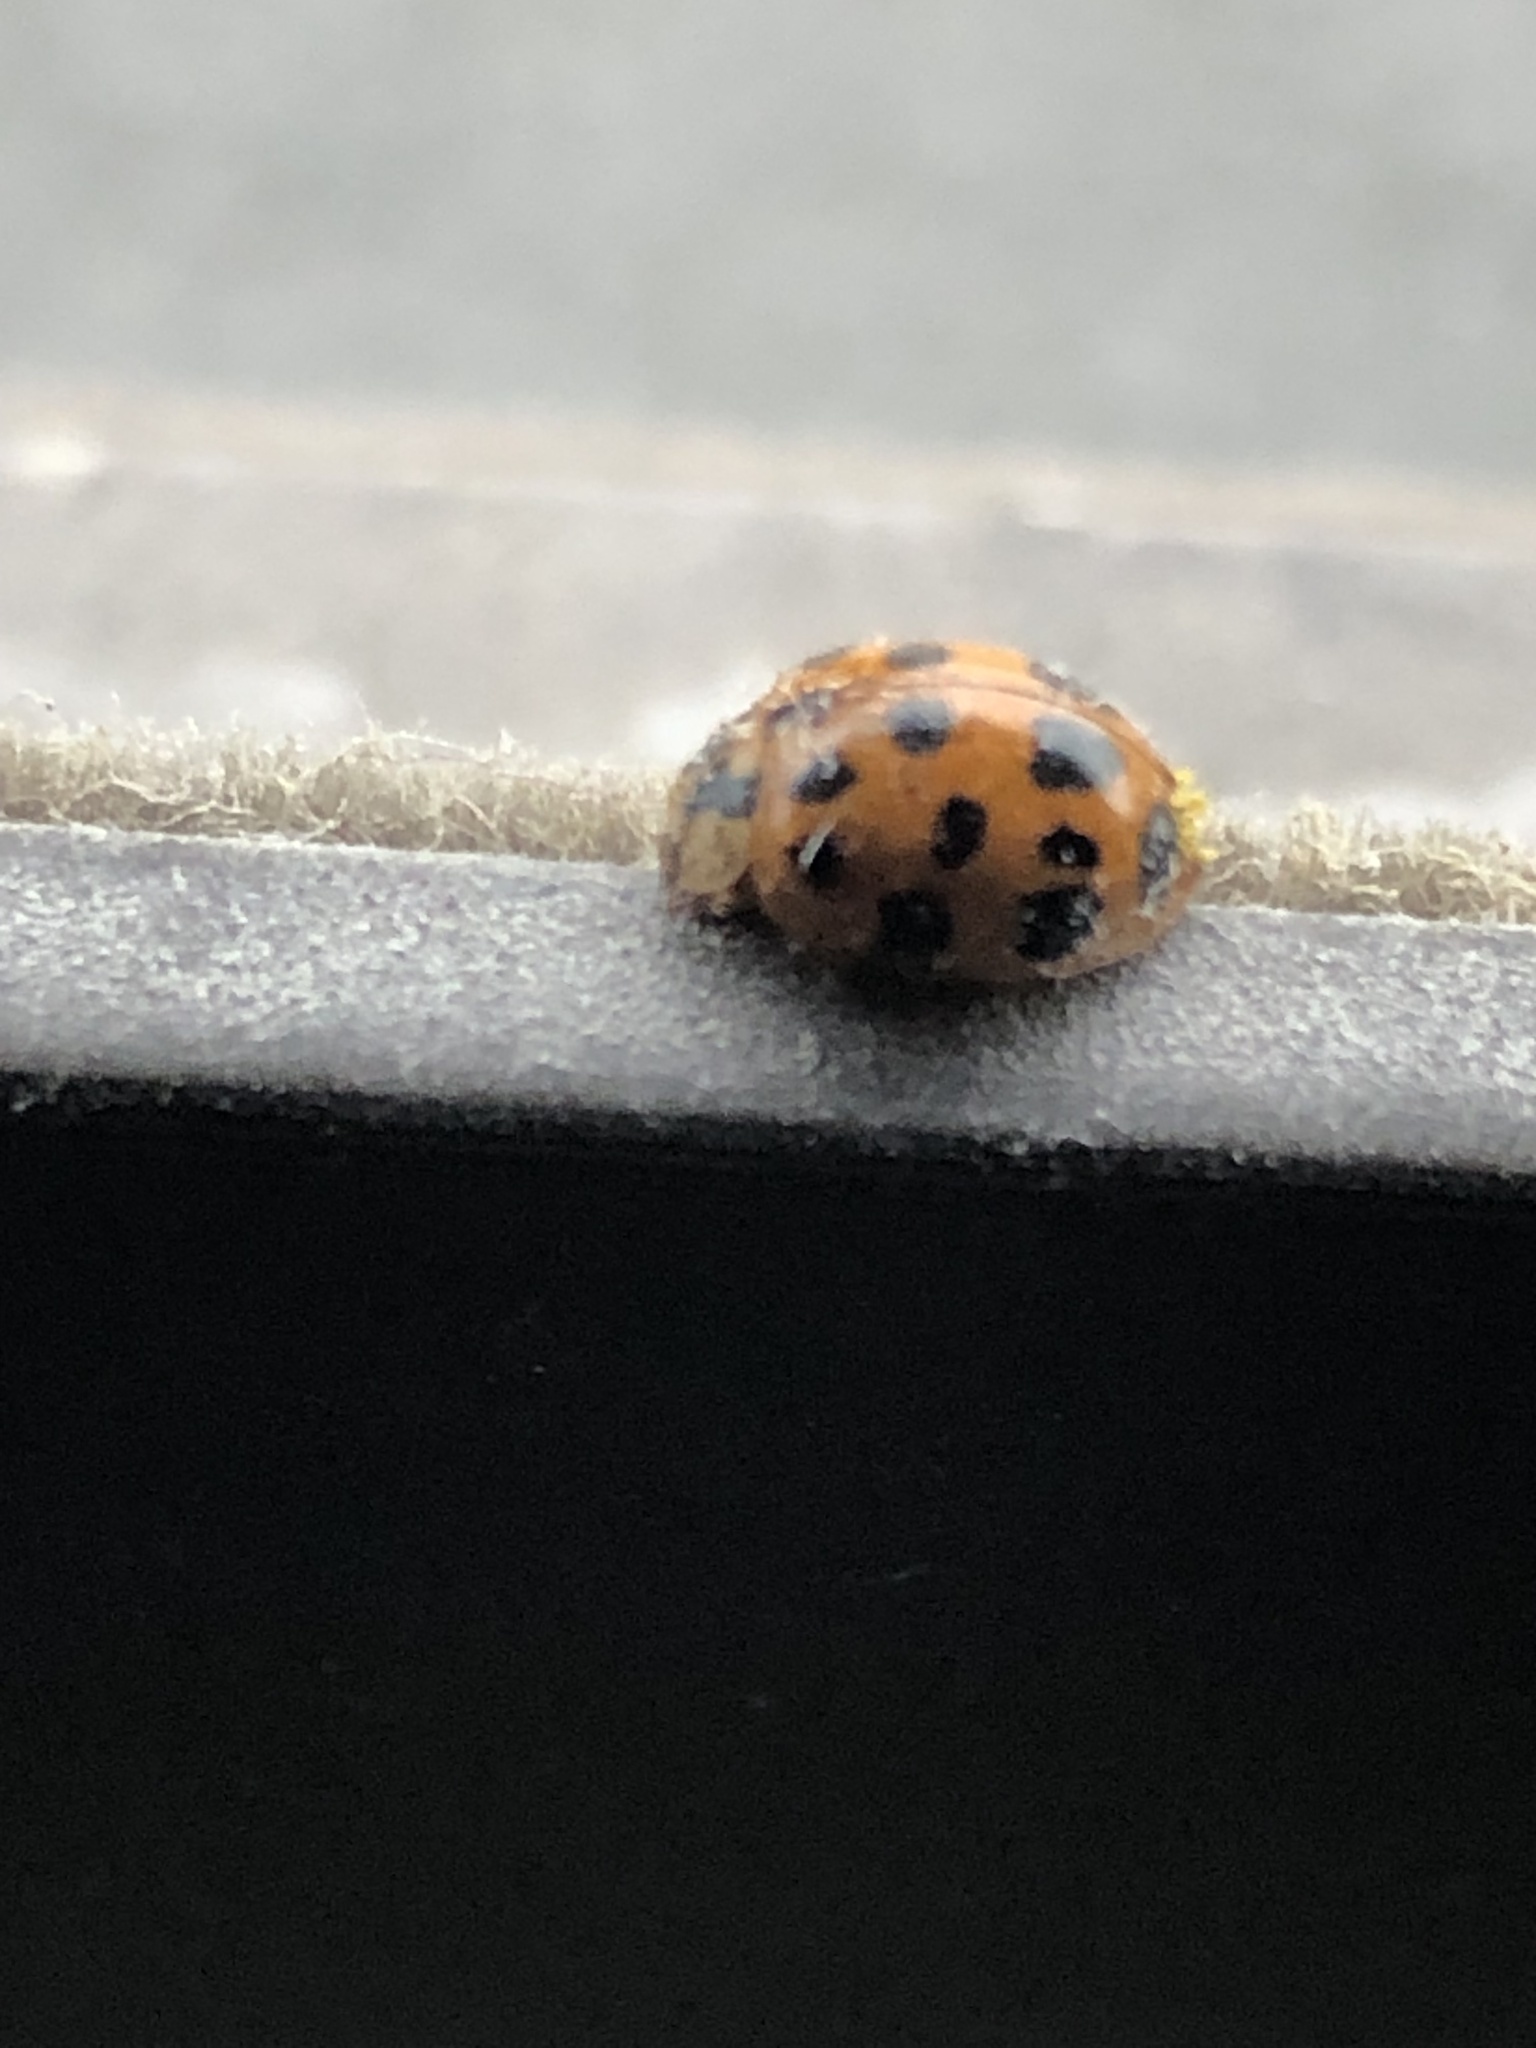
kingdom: Animalia
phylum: Arthropoda
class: Insecta
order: Coleoptera
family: Coccinellidae
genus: Harmonia
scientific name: Harmonia axyridis
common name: Harlequin ladybird
